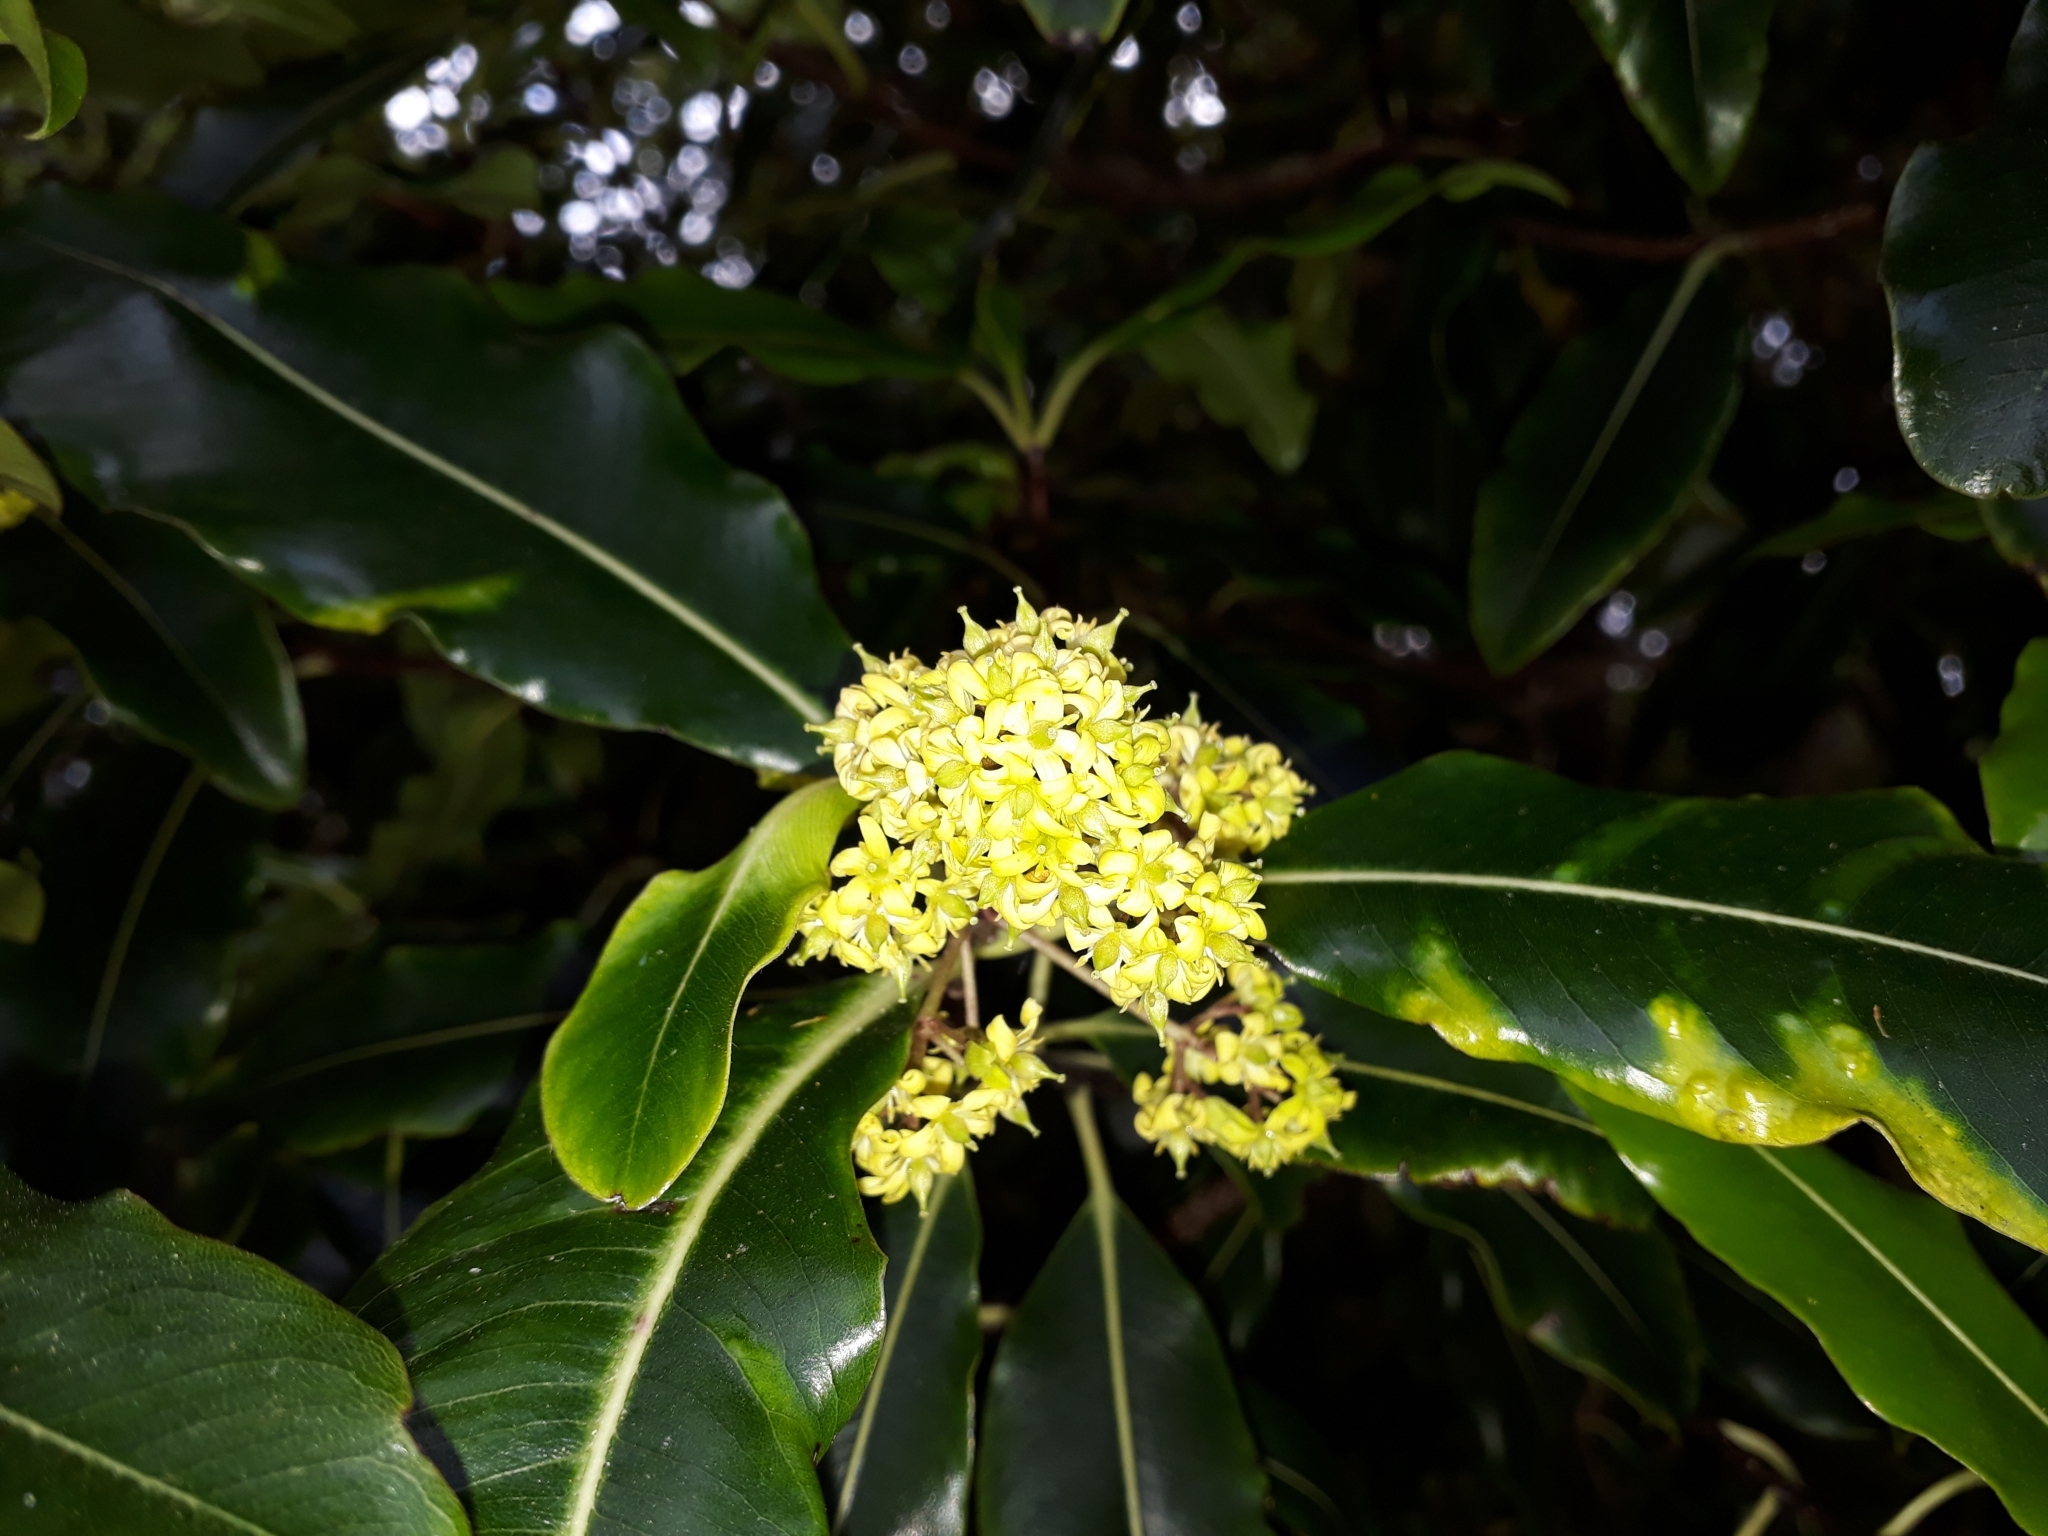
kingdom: Plantae
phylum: Tracheophyta
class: Magnoliopsida
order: Apiales
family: Pittosporaceae
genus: Pittosporum
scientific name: Pittosporum eugenioides
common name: Lemonwood
